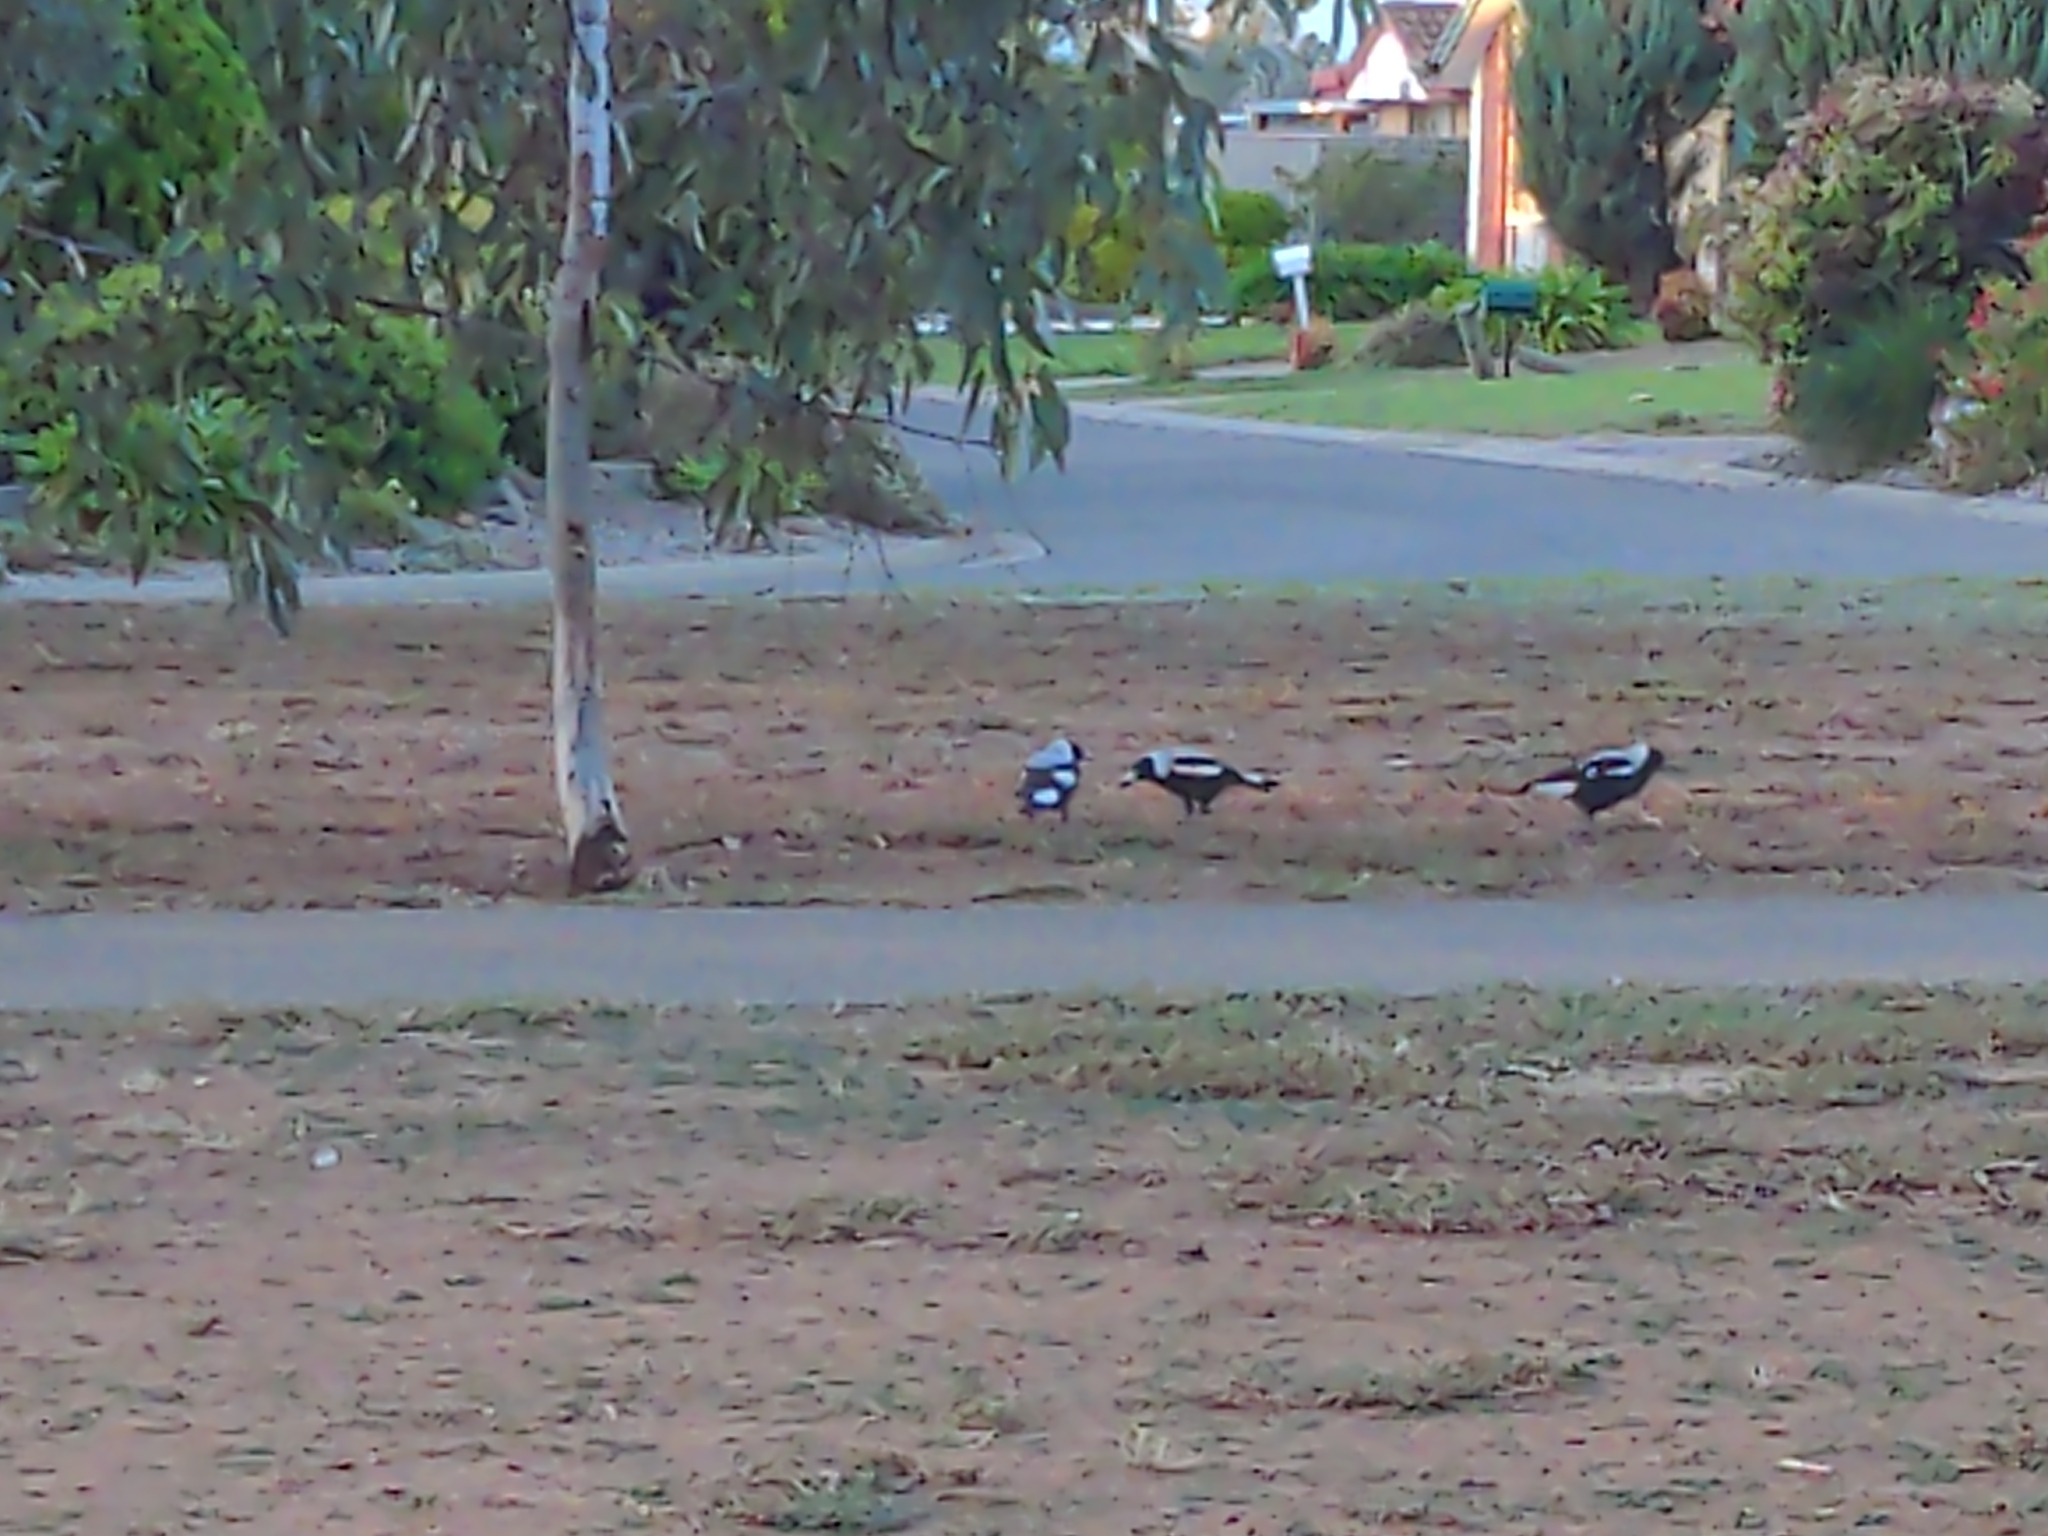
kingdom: Animalia
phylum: Chordata
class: Aves
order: Passeriformes
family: Cracticidae
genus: Gymnorhina
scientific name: Gymnorhina tibicen
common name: Australian magpie
